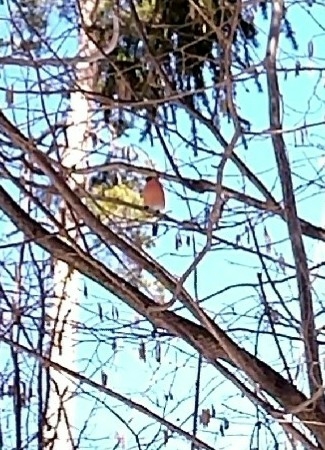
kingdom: Animalia
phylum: Chordata
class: Aves
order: Passeriformes
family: Fringillidae
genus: Pyrrhula
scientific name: Pyrrhula pyrrhula
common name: Eurasian bullfinch
